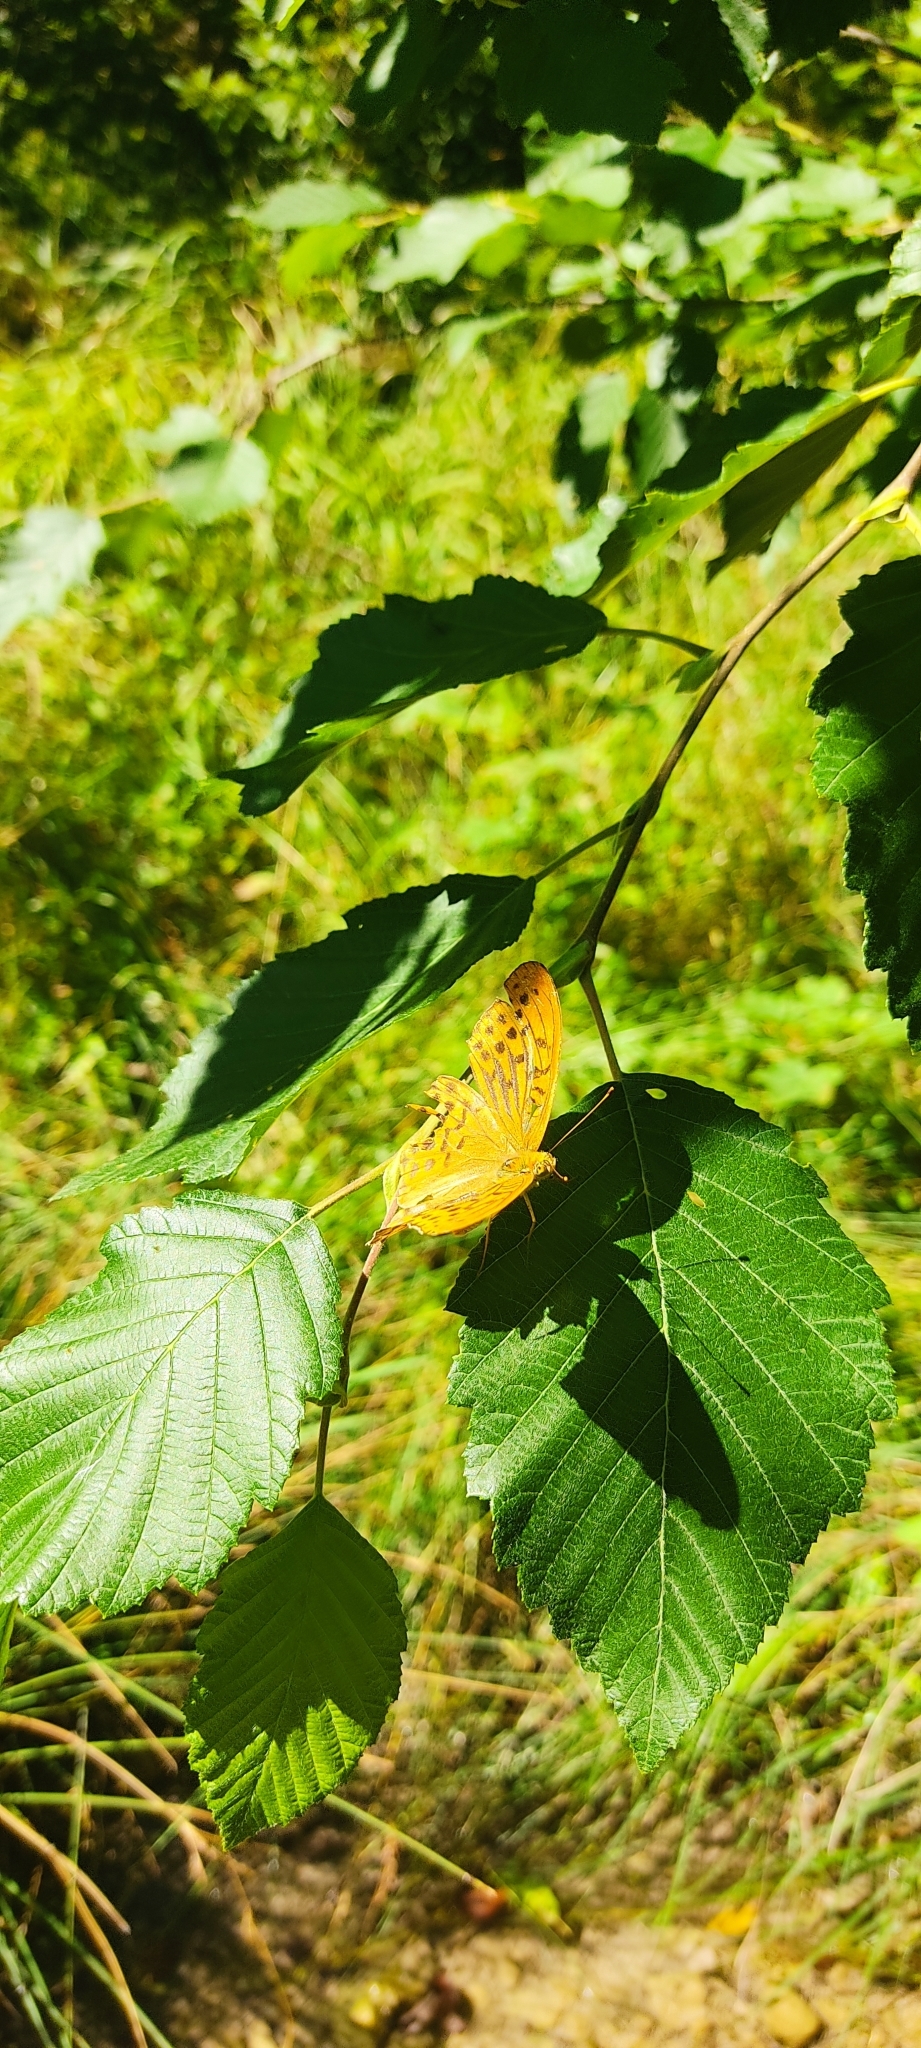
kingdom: Animalia
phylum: Arthropoda
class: Insecta
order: Lepidoptera
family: Nymphalidae
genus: Argynnis
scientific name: Argynnis paphia
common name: Silver-washed fritillary
